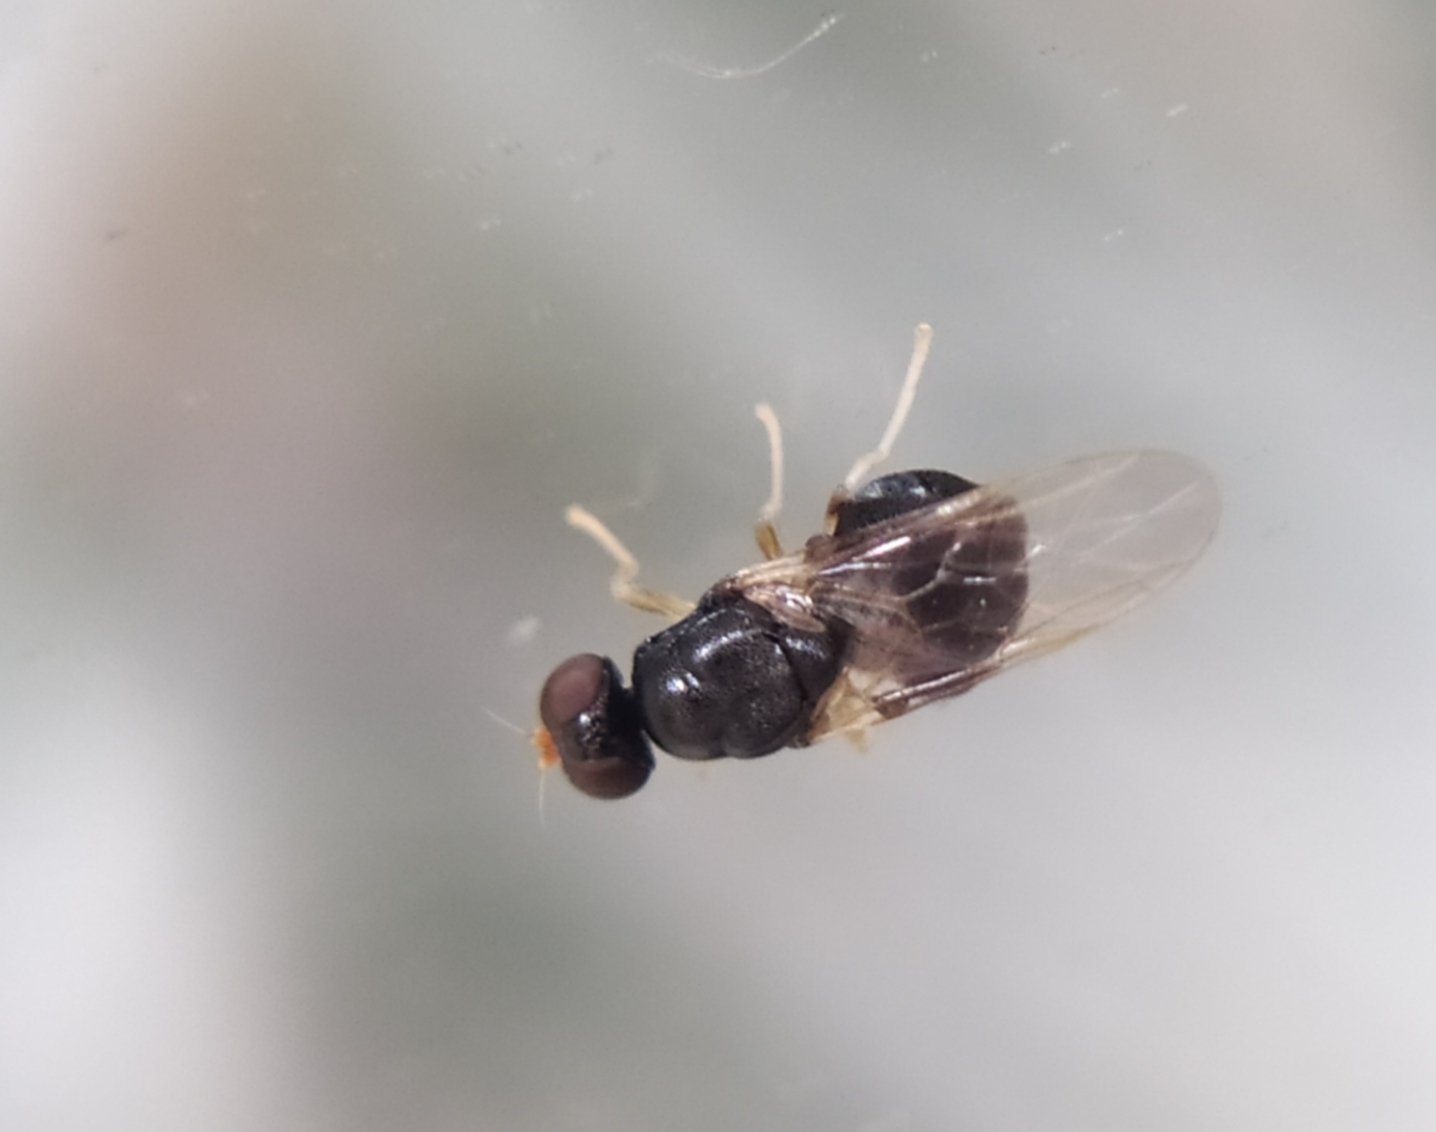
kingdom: Animalia
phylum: Arthropoda
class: Insecta
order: Diptera
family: Stratiomyidae
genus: Pachygaster
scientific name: Pachygaster leachii
